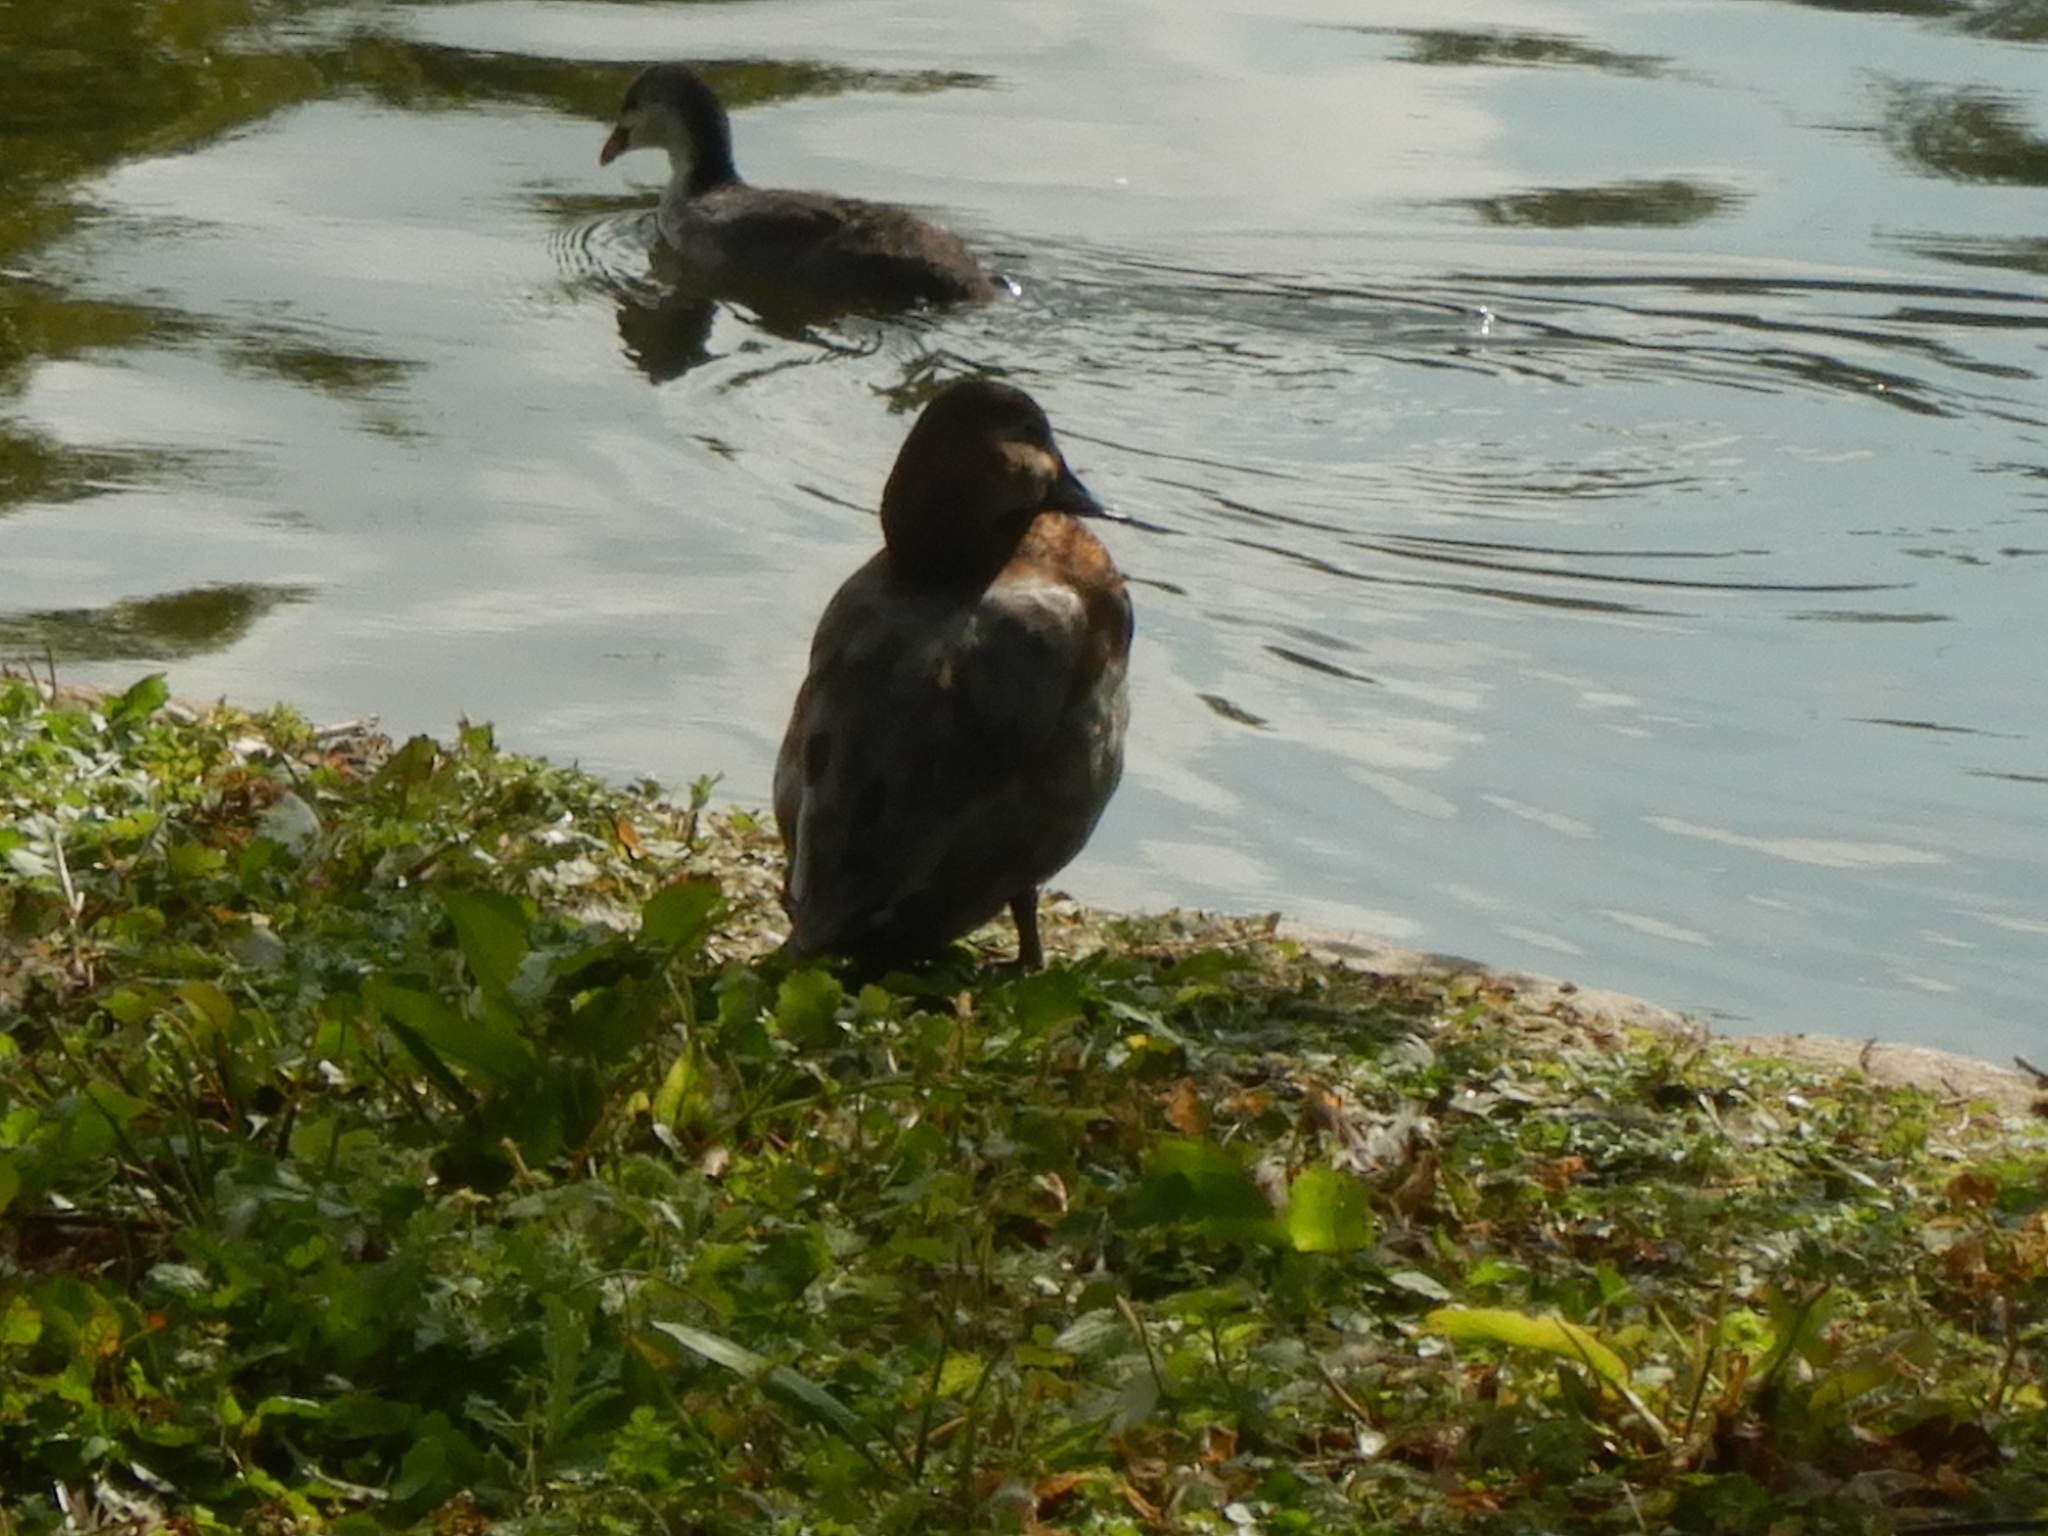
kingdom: Animalia
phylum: Chordata
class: Aves
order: Anseriformes
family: Anatidae
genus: Aythya
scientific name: Aythya ferina
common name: Common pochard
